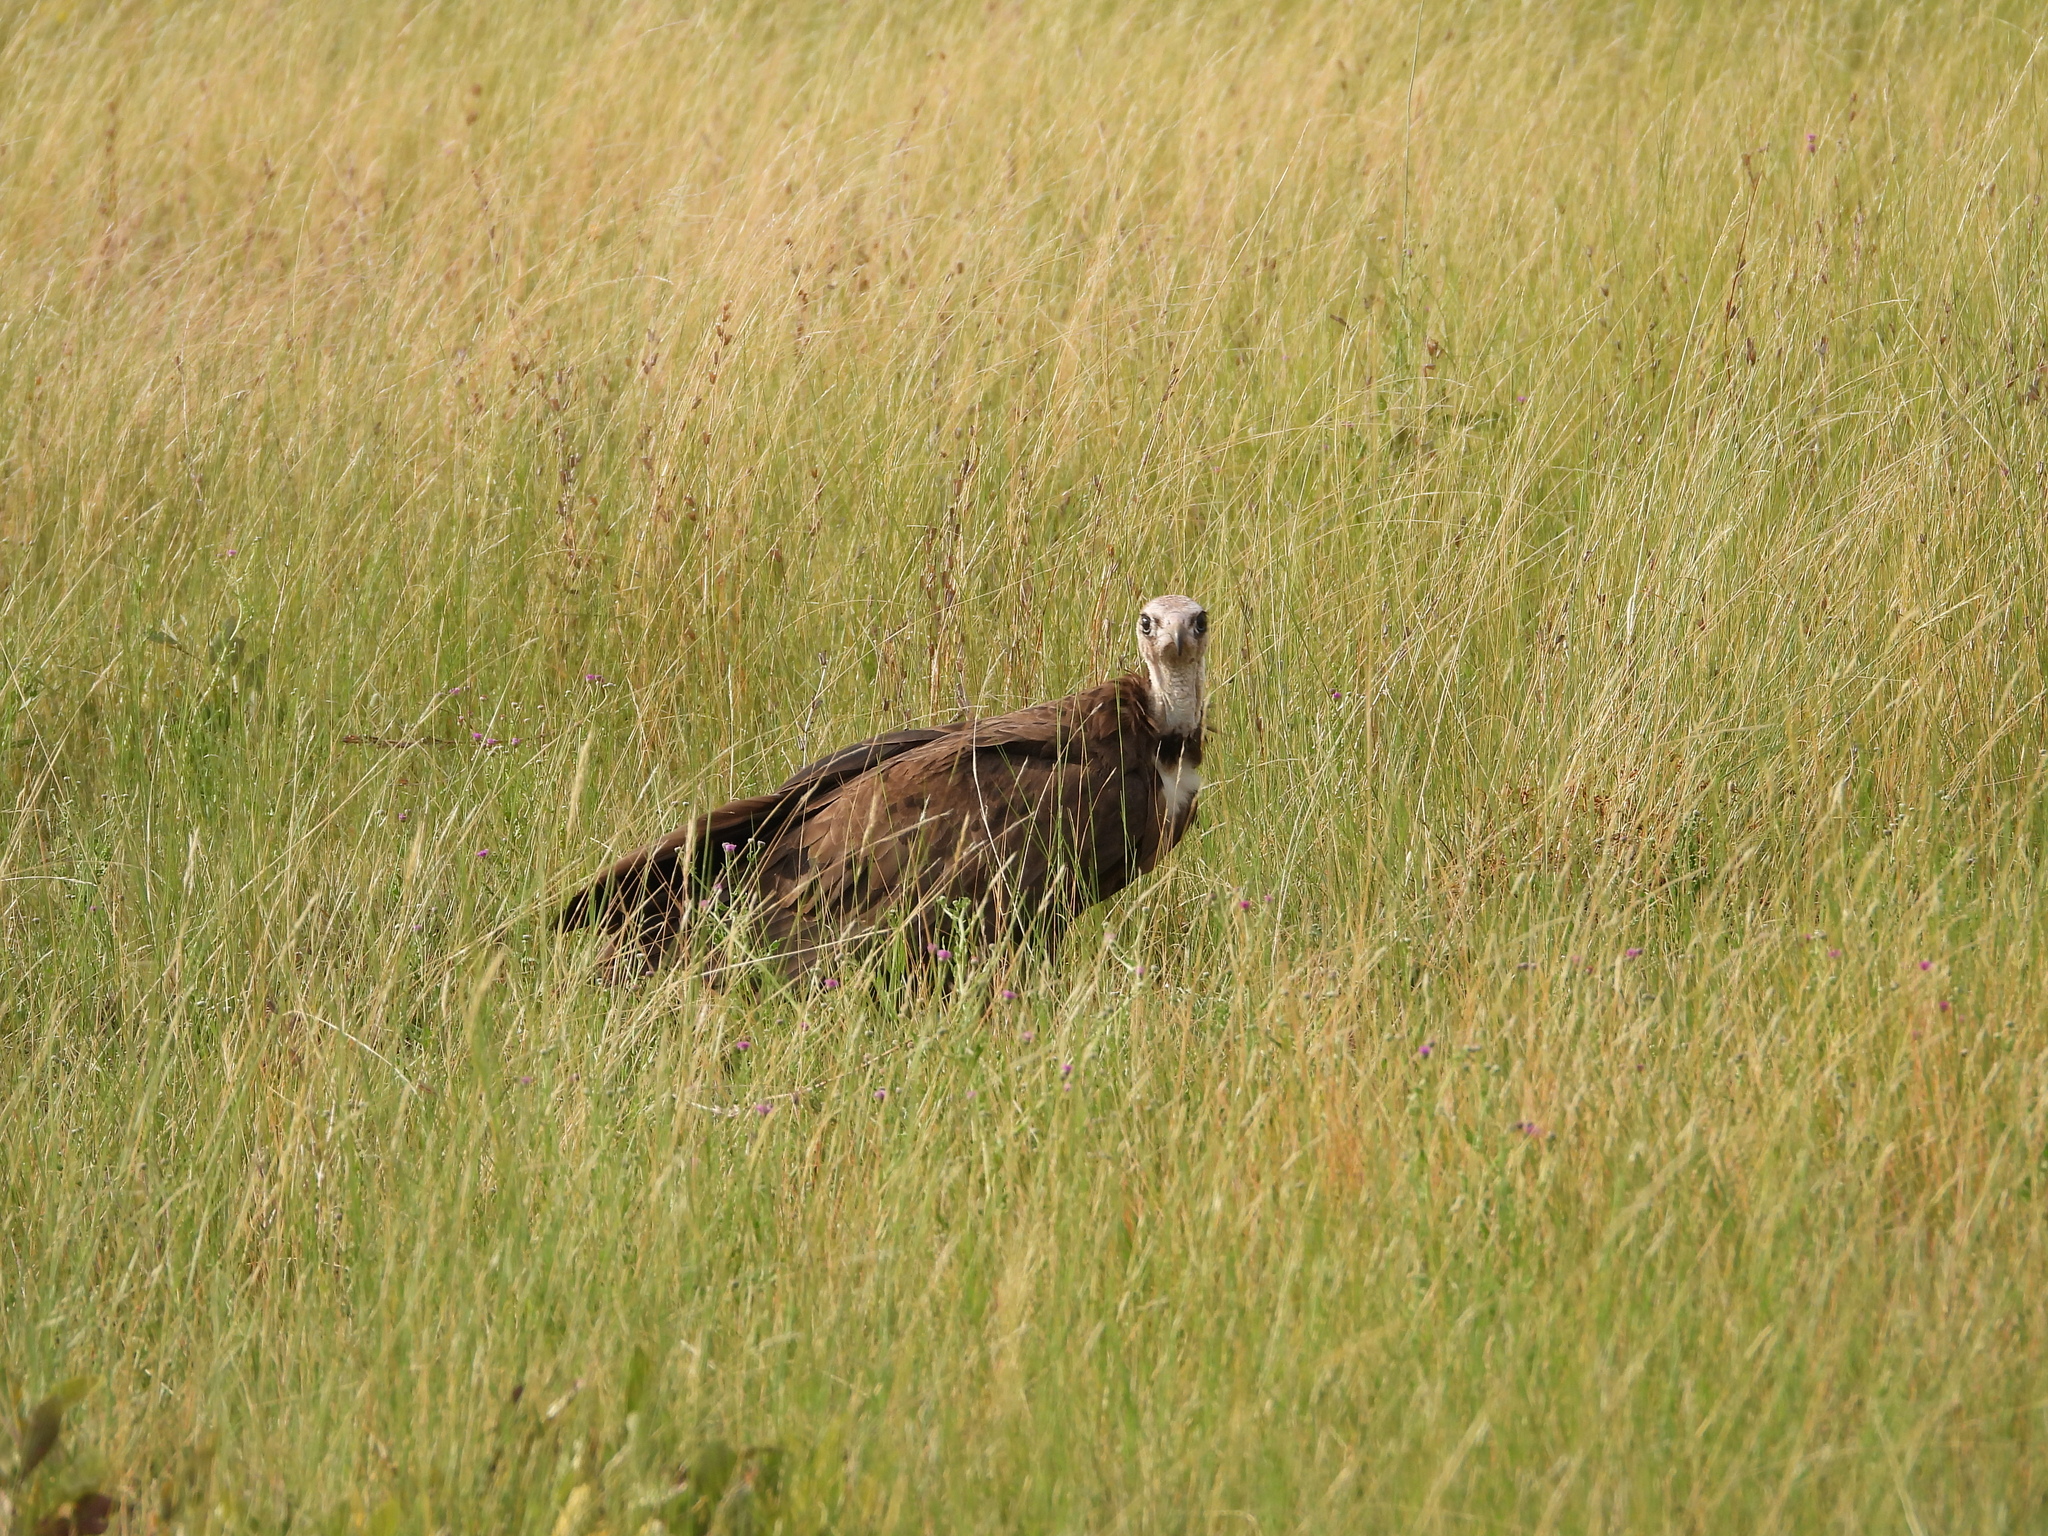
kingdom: Animalia
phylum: Chordata
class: Aves
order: Accipitriformes
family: Accipitridae
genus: Necrosyrtes
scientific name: Necrosyrtes monachus
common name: Hooded vulture
